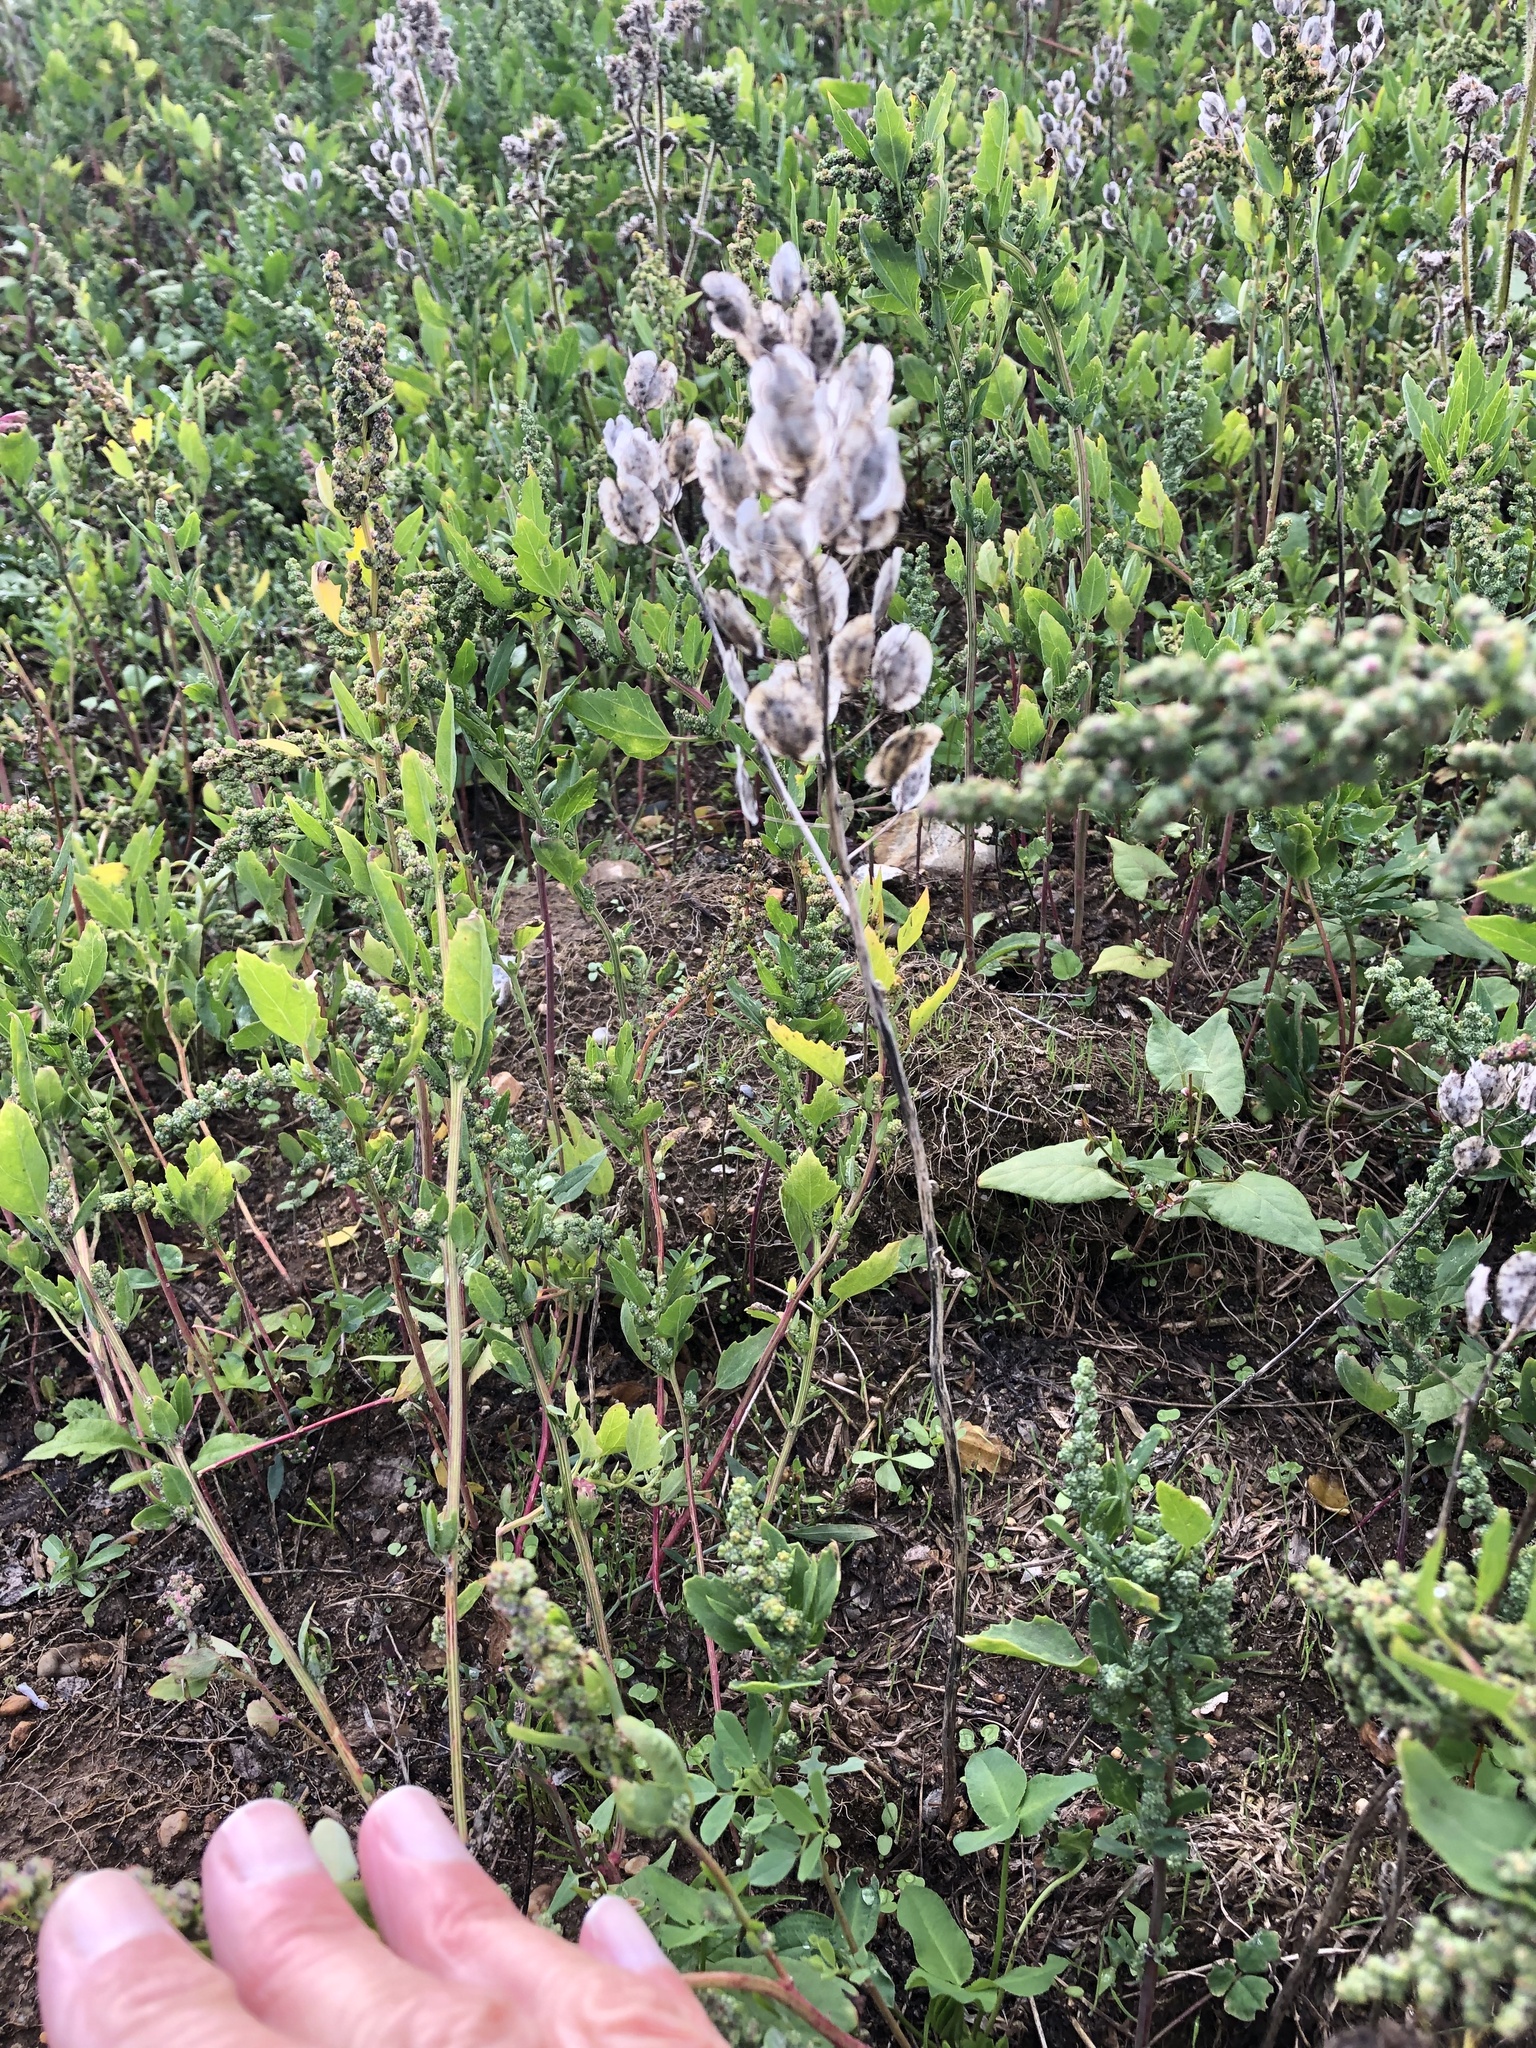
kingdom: Plantae
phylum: Tracheophyta
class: Magnoliopsida
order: Brassicales
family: Brassicaceae
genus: Thlaspi
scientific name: Thlaspi arvense
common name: Field pennycress
